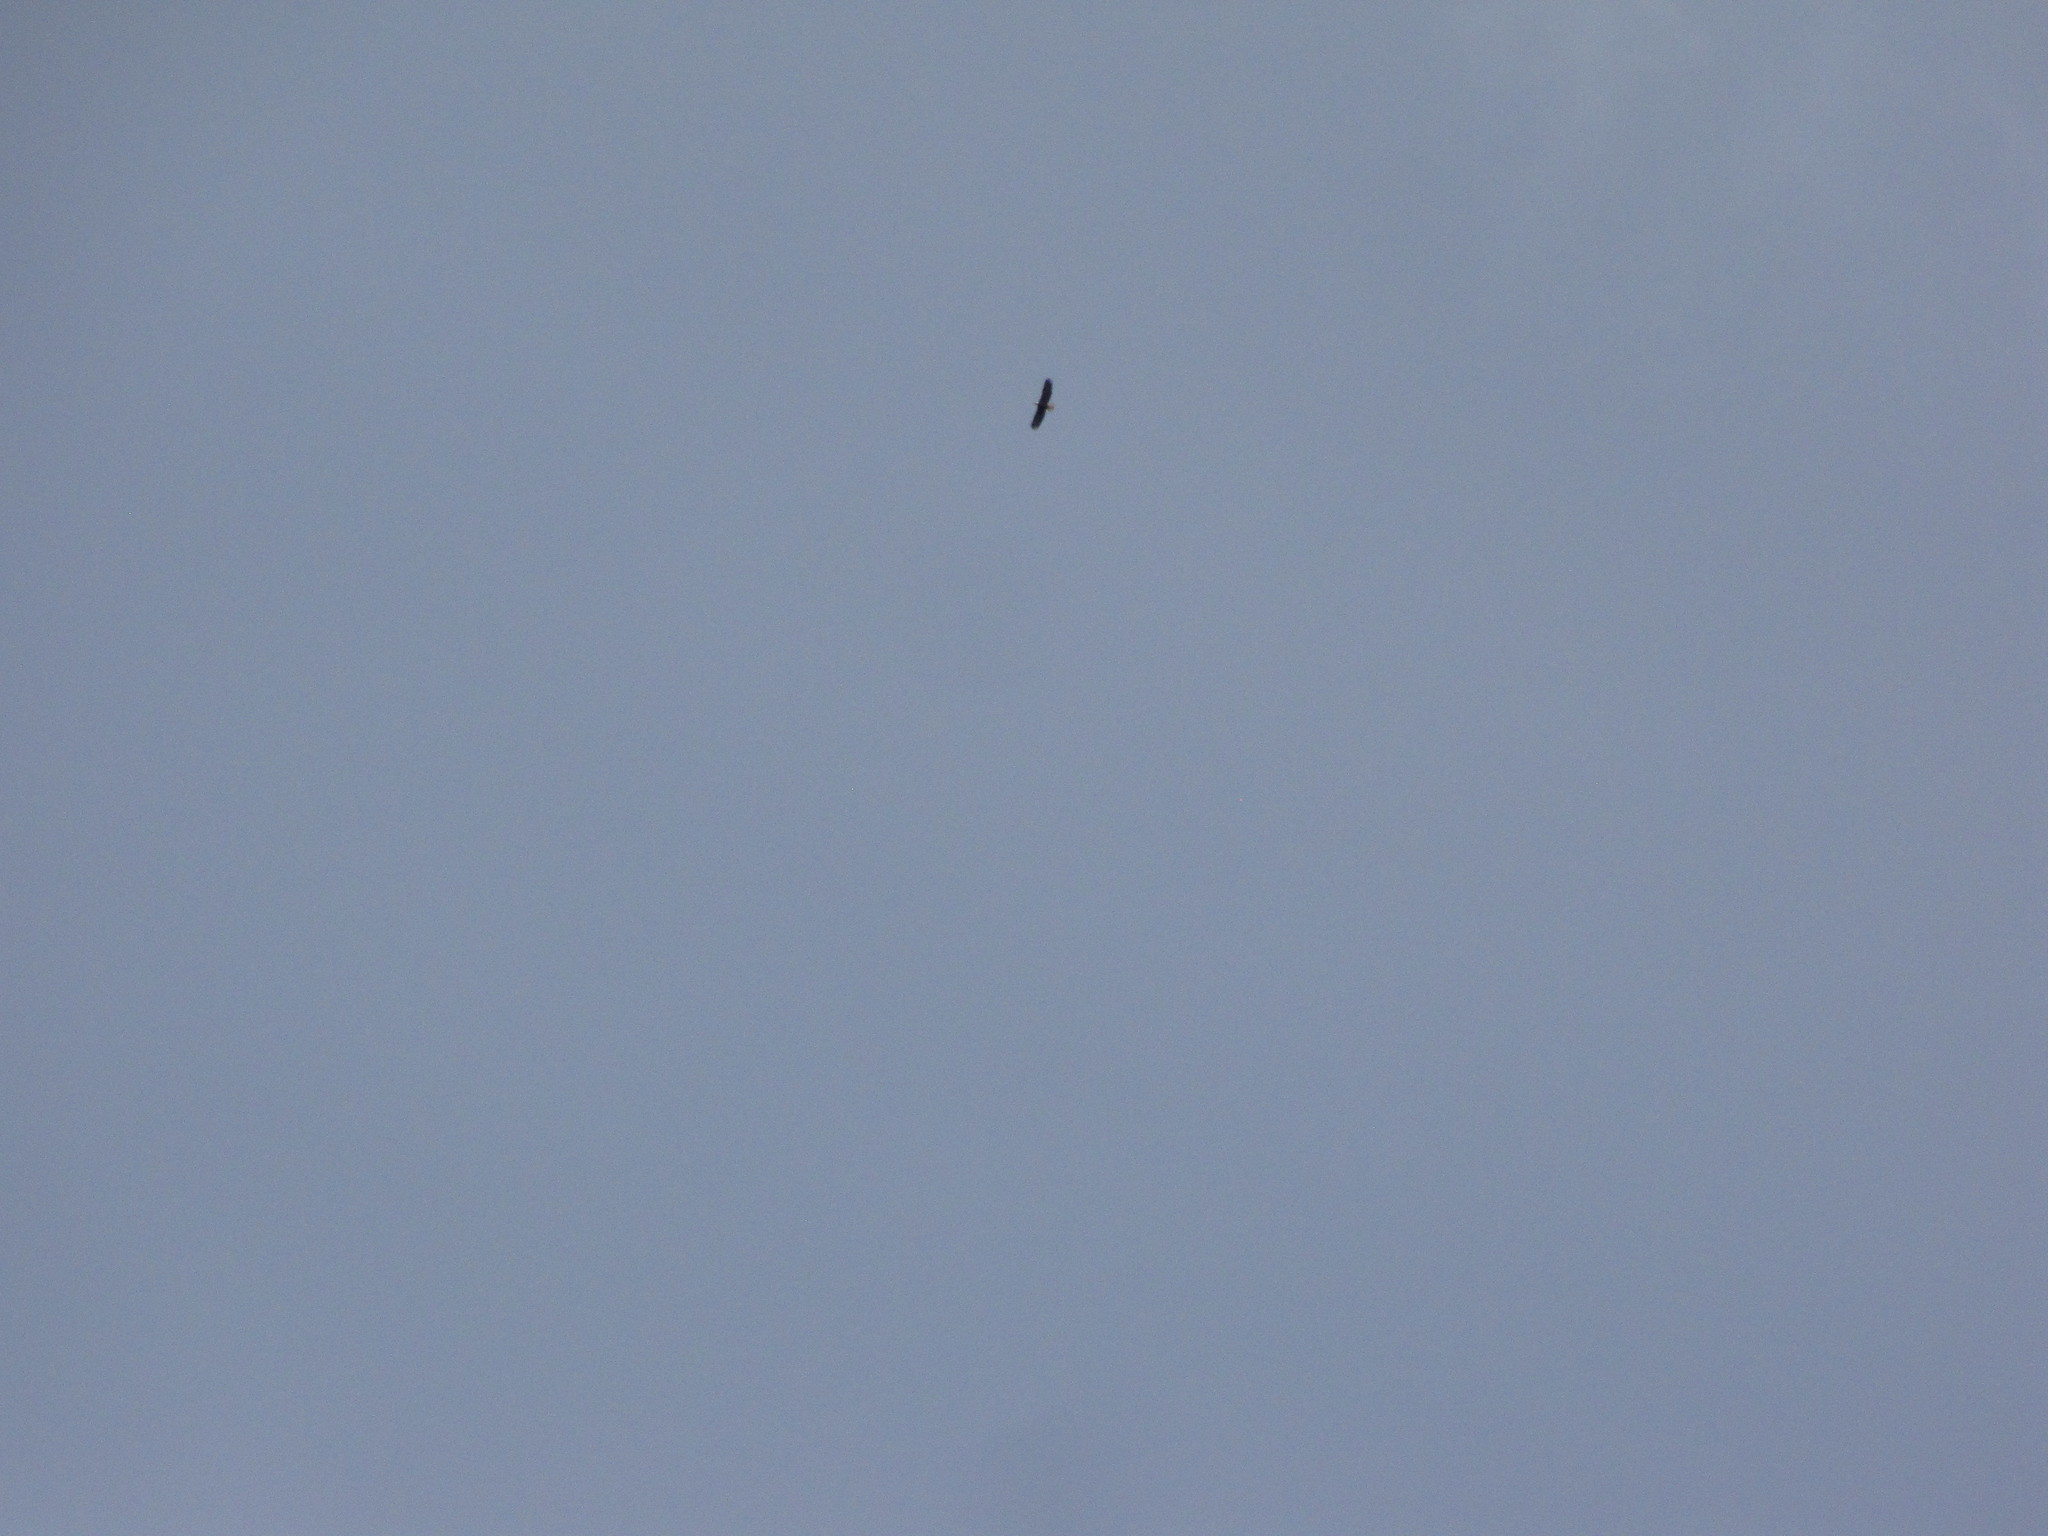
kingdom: Animalia
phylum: Chordata
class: Aves
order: Accipitriformes
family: Accipitridae
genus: Haliaeetus
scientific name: Haliaeetus leucocephalus
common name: Bald eagle
